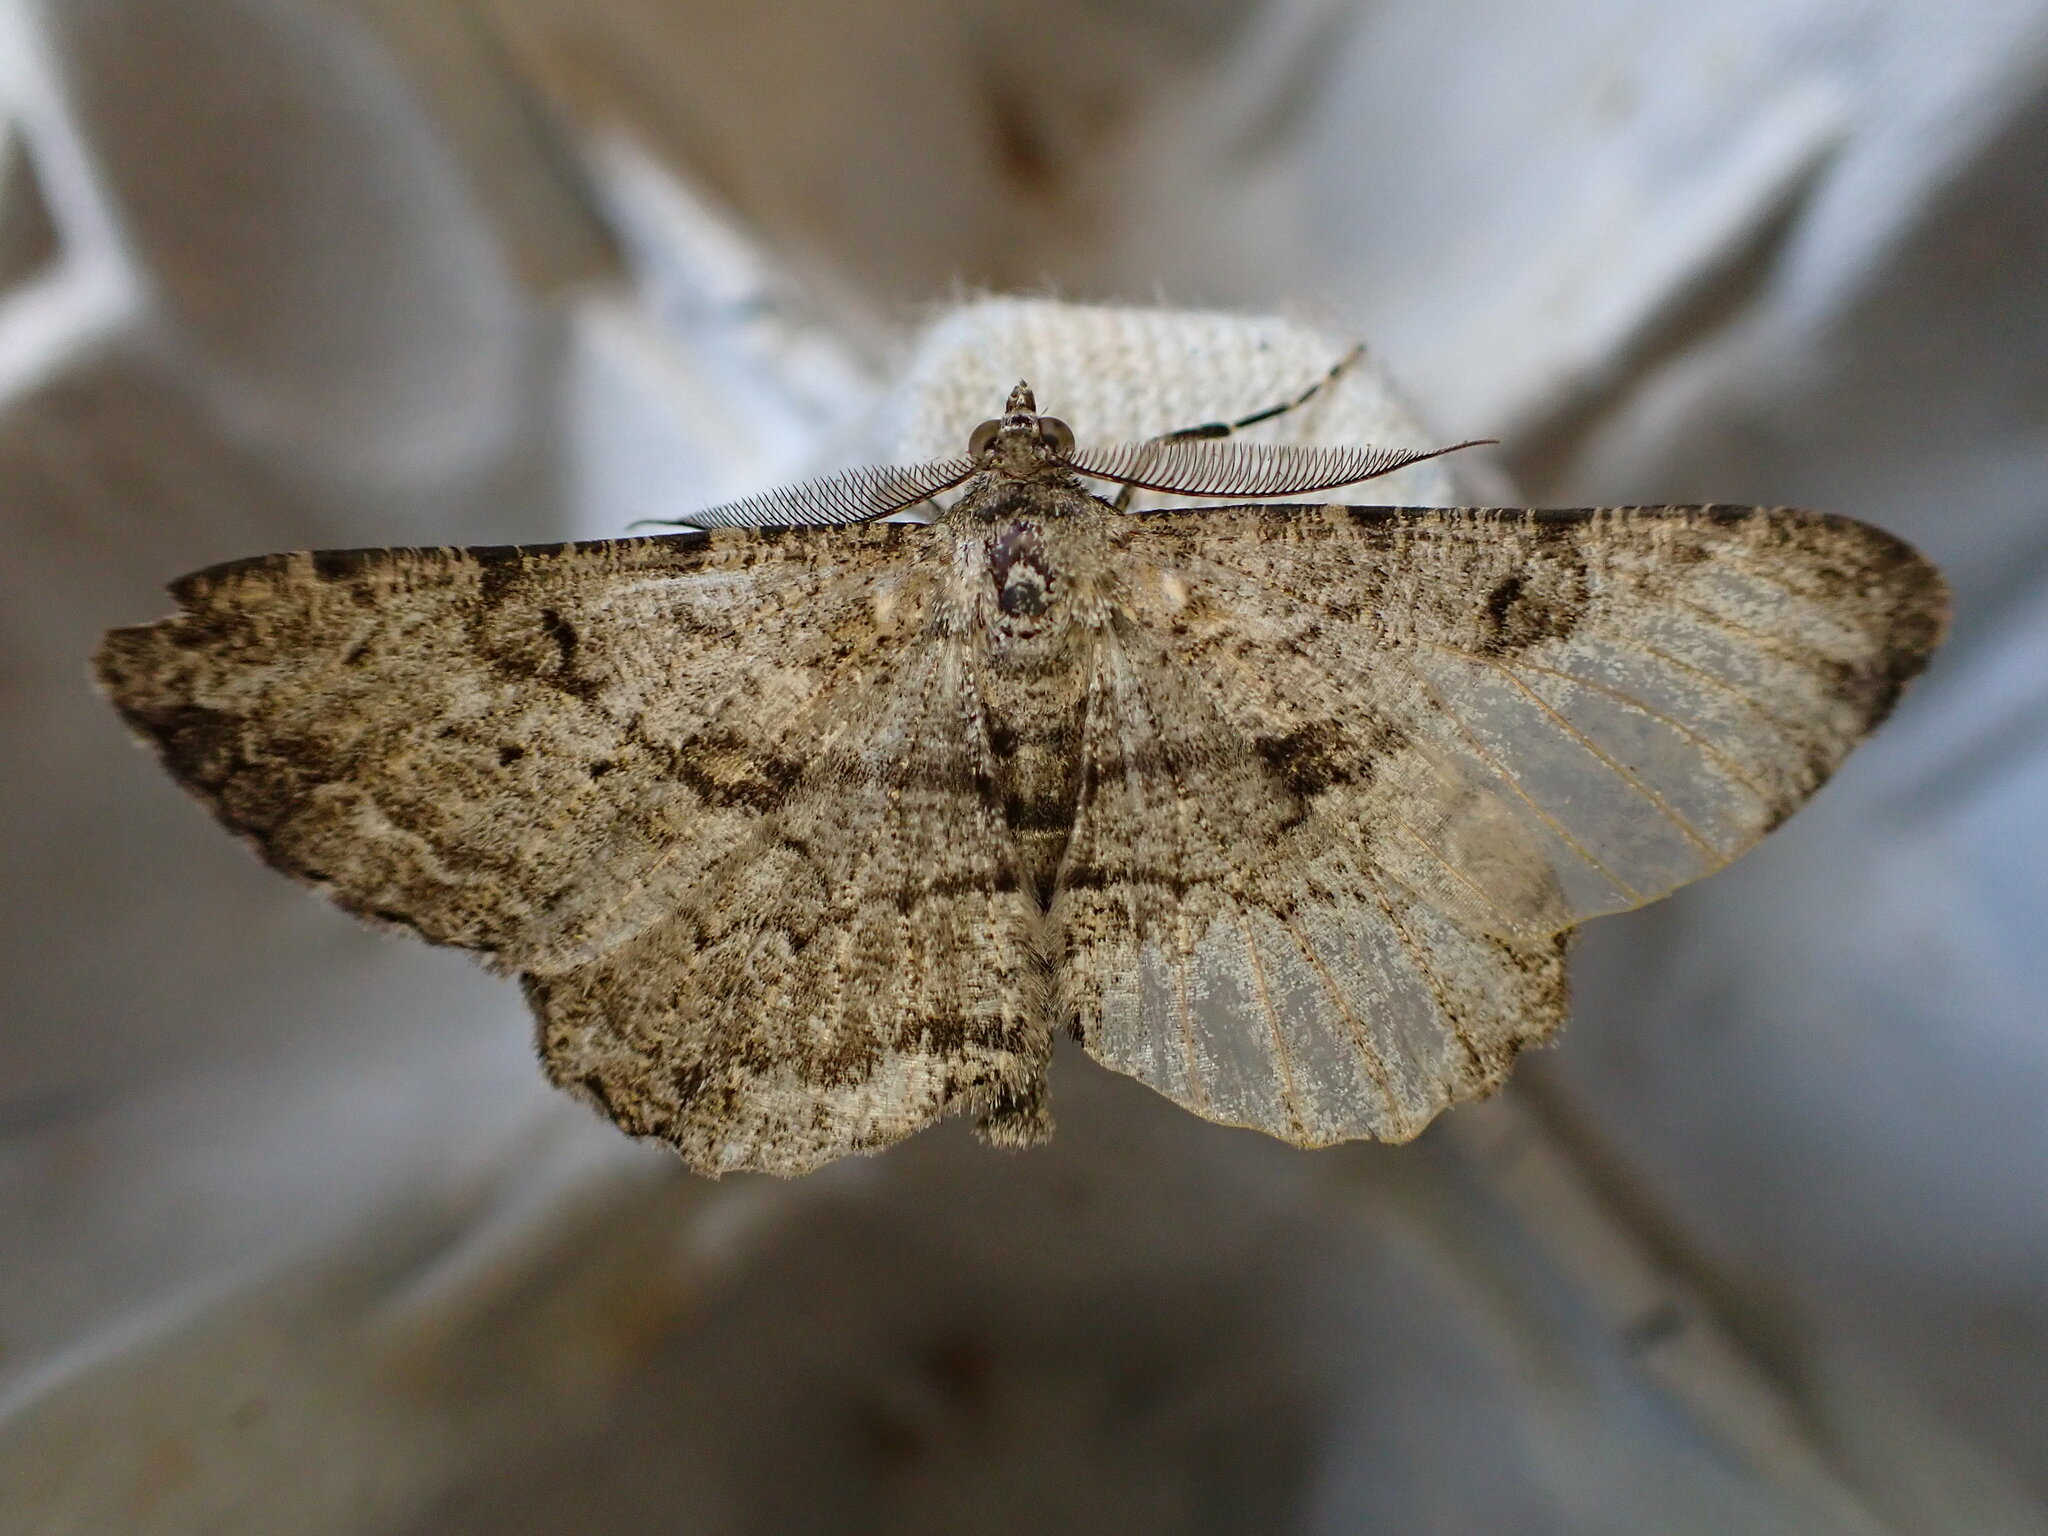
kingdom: Animalia
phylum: Arthropoda
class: Insecta
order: Lepidoptera
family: Geometridae
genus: Peribatodes
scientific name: Peribatodes rhomboidaria
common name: Willow beauty
